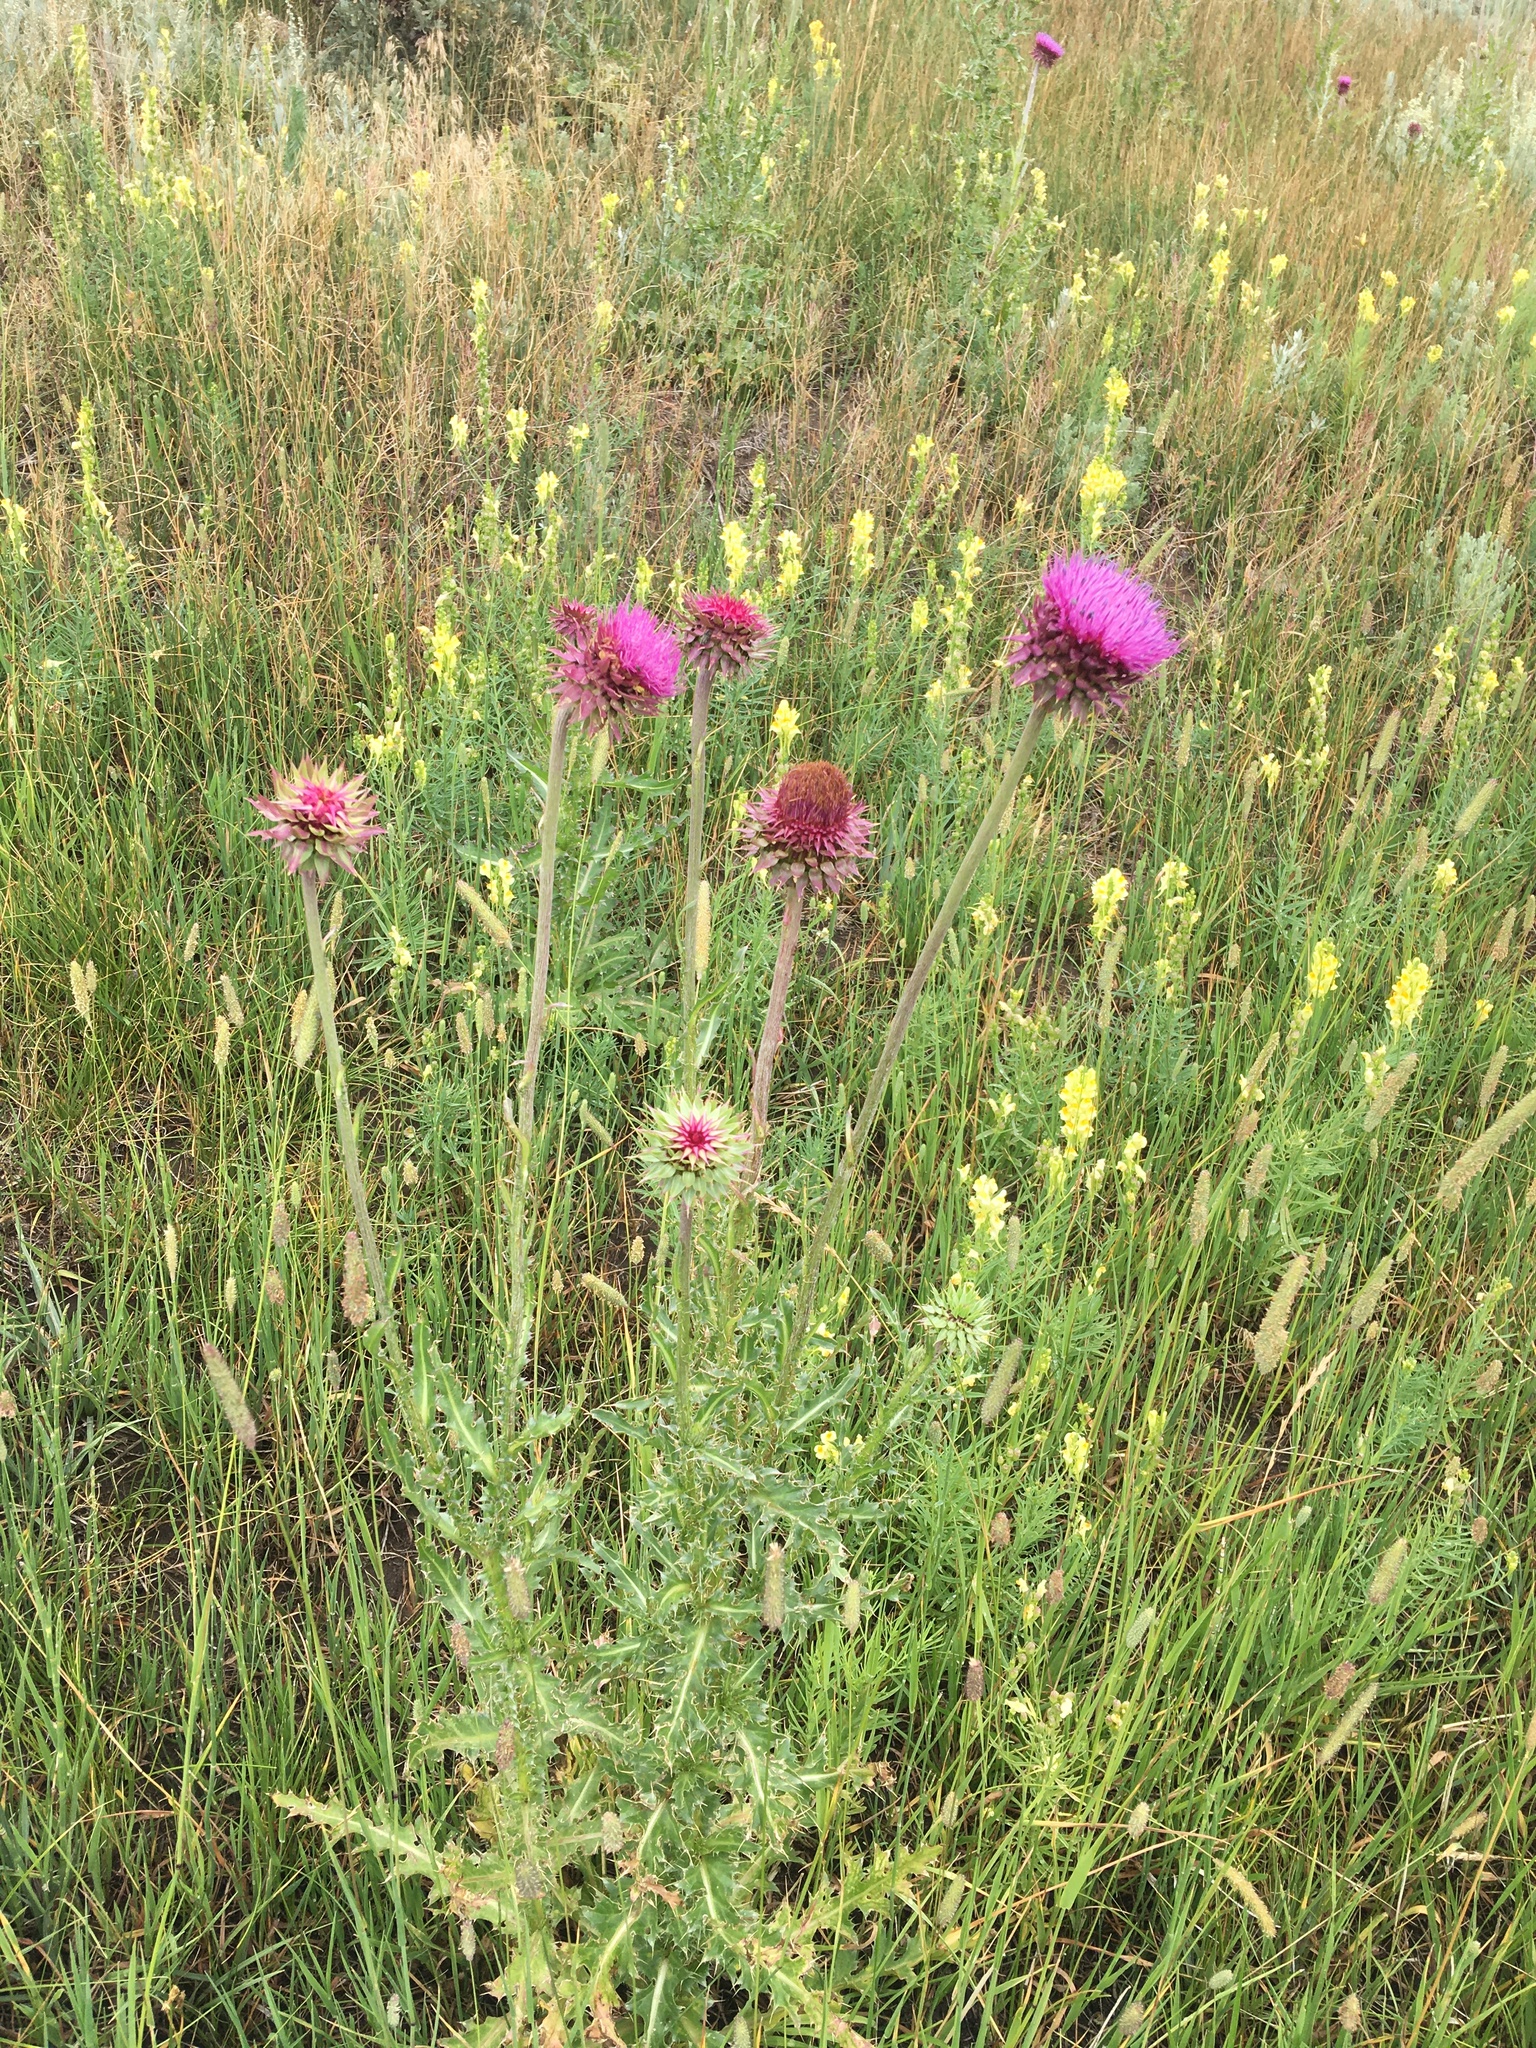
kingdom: Plantae
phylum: Tracheophyta
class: Magnoliopsida
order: Asterales
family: Asteraceae
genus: Carduus
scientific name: Carduus nutans
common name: Musk thistle
